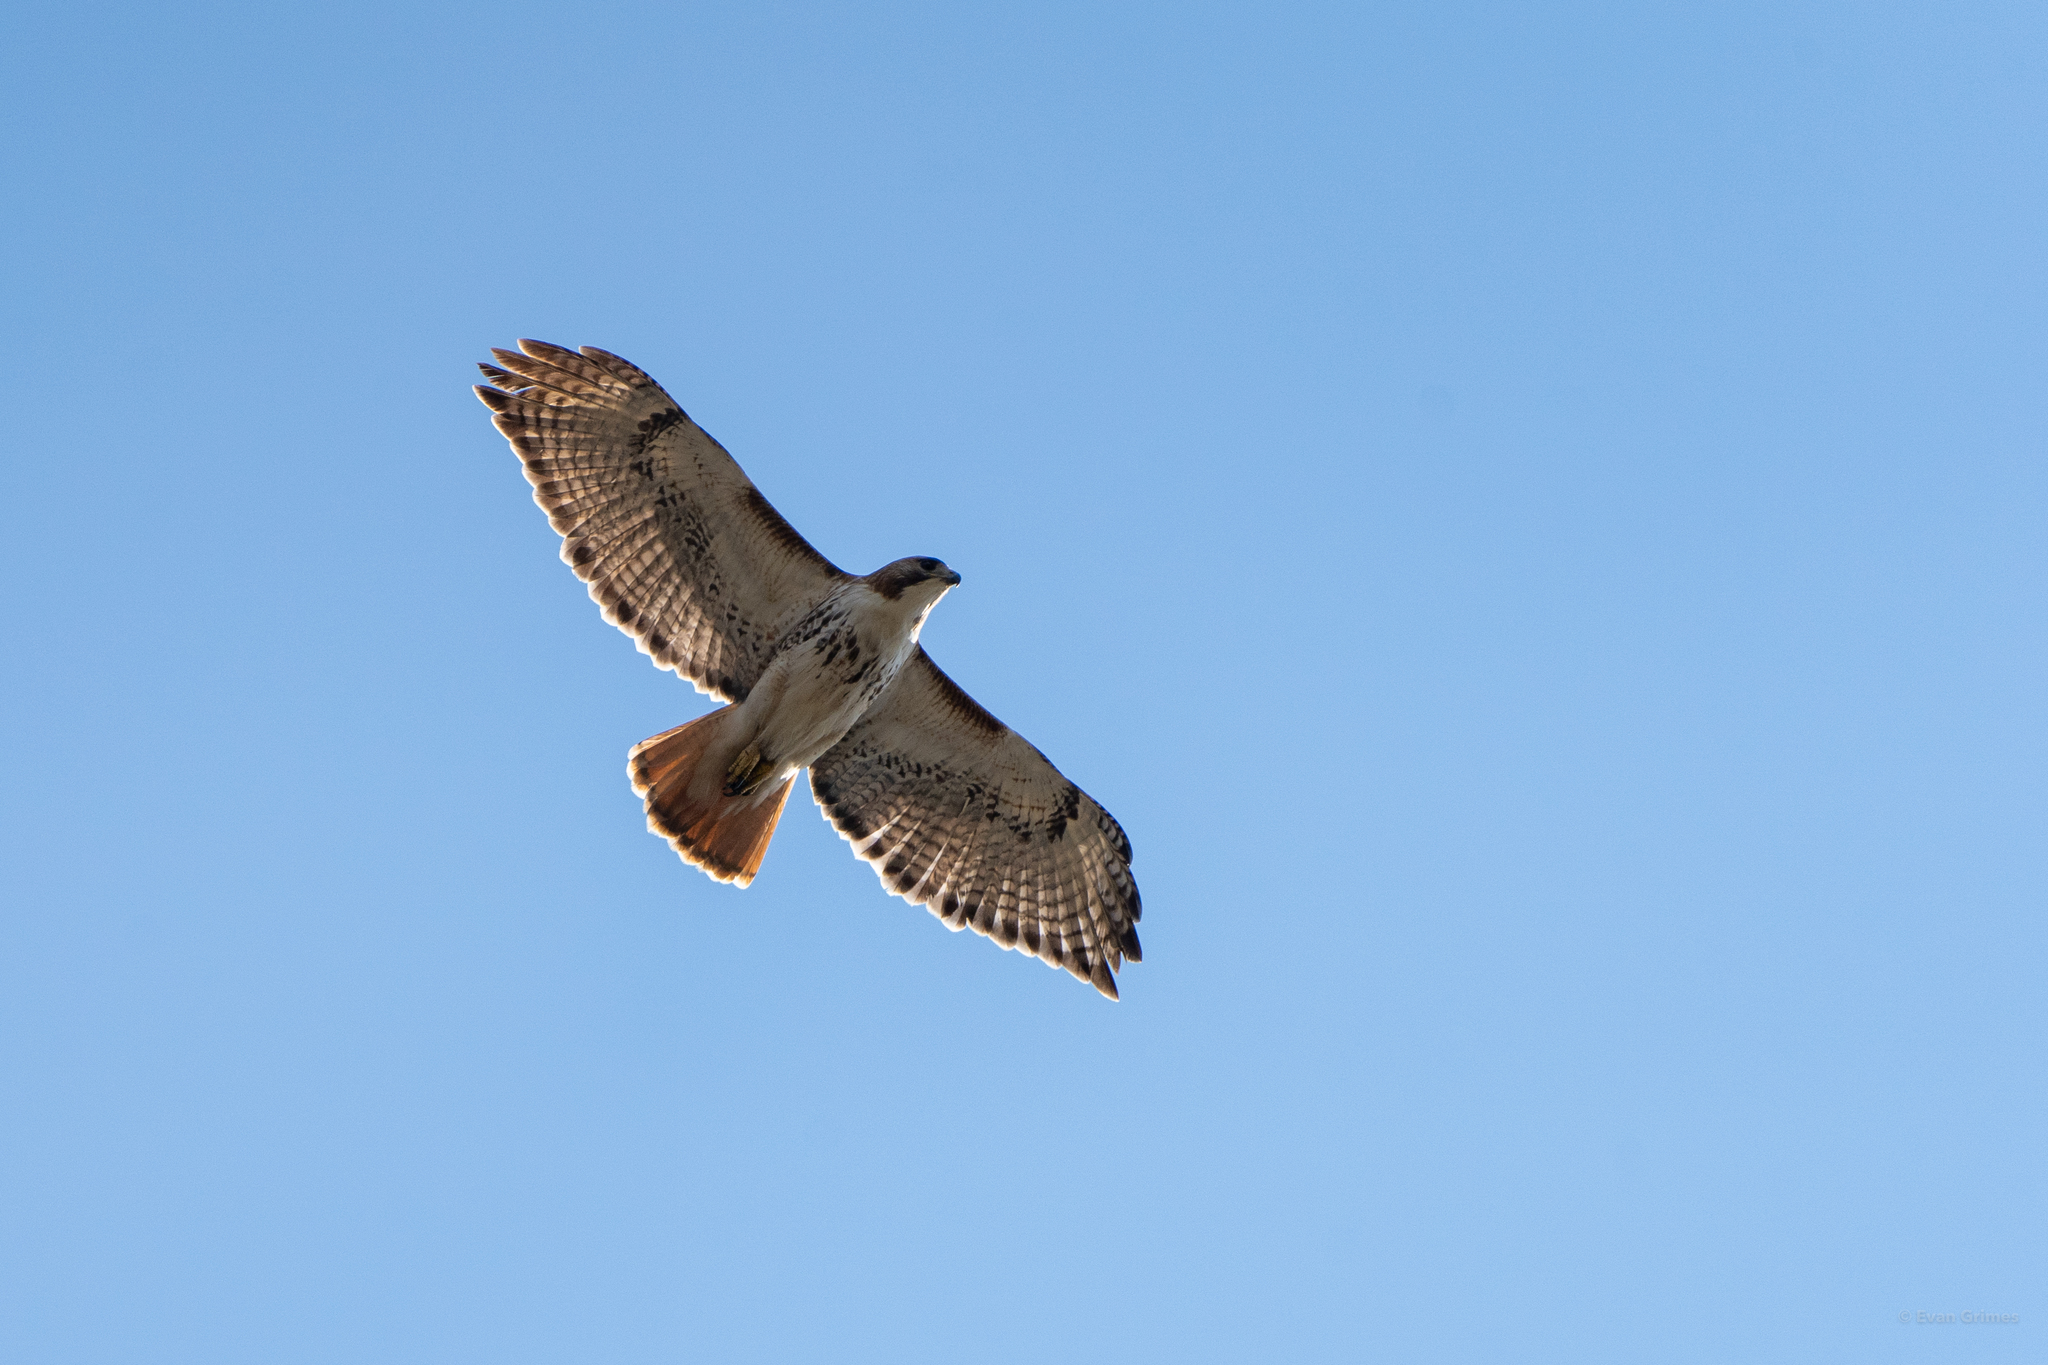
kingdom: Animalia
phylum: Chordata
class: Aves
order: Accipitriformes
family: Accipitridae
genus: Buteo
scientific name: Buteo jamaicensis
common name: Red-tailed hawk
